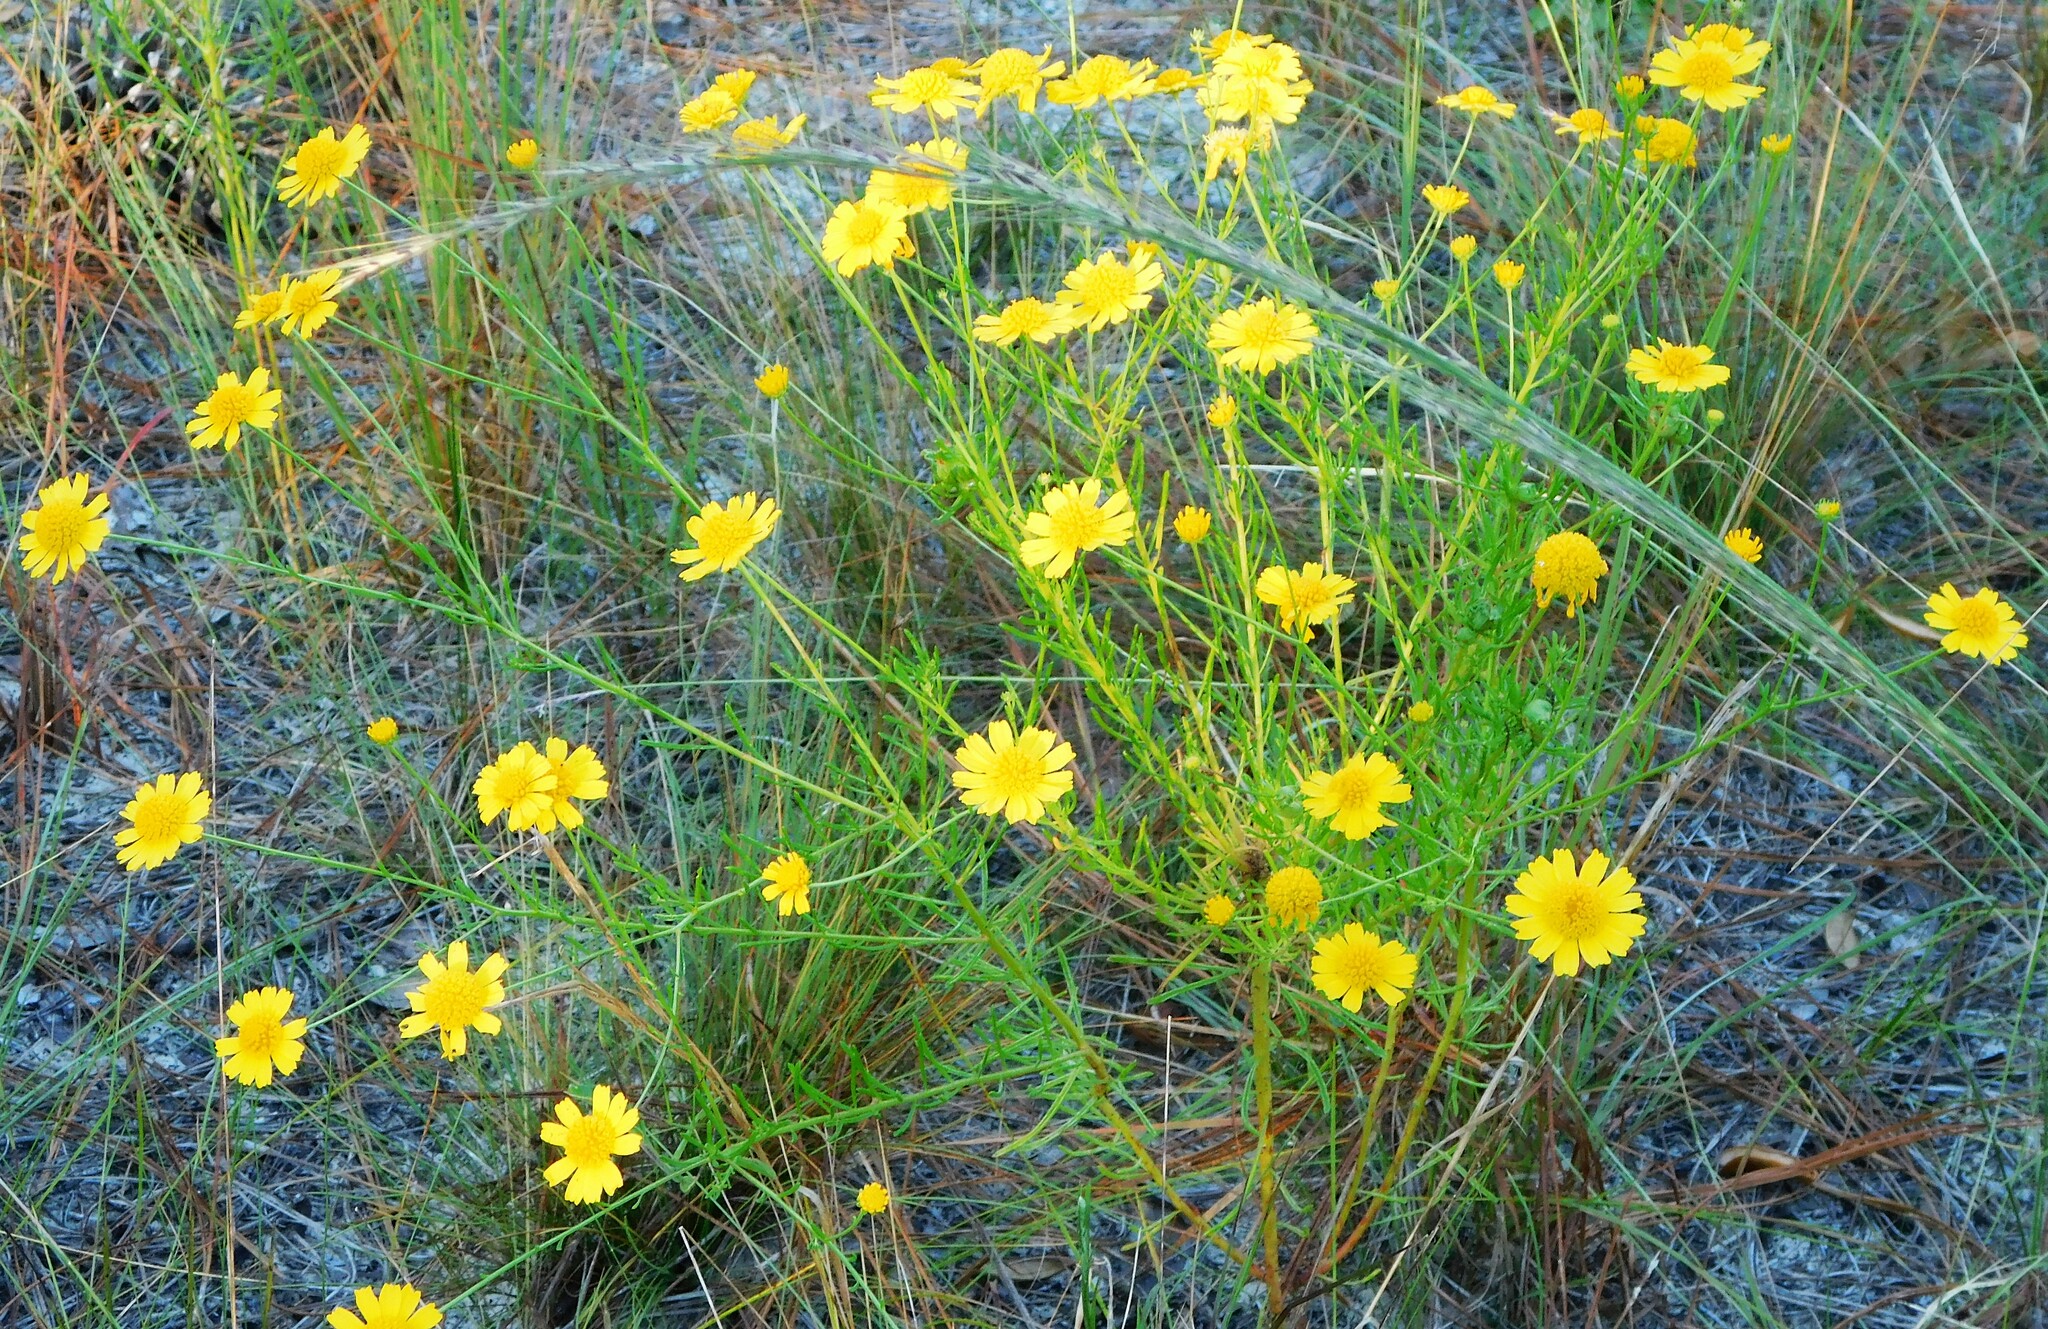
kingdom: Plantae
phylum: Tracheophyta
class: Magnoliopsida
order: Asterales
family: Asteraceae
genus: Balduina
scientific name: Balduina angustifolia
